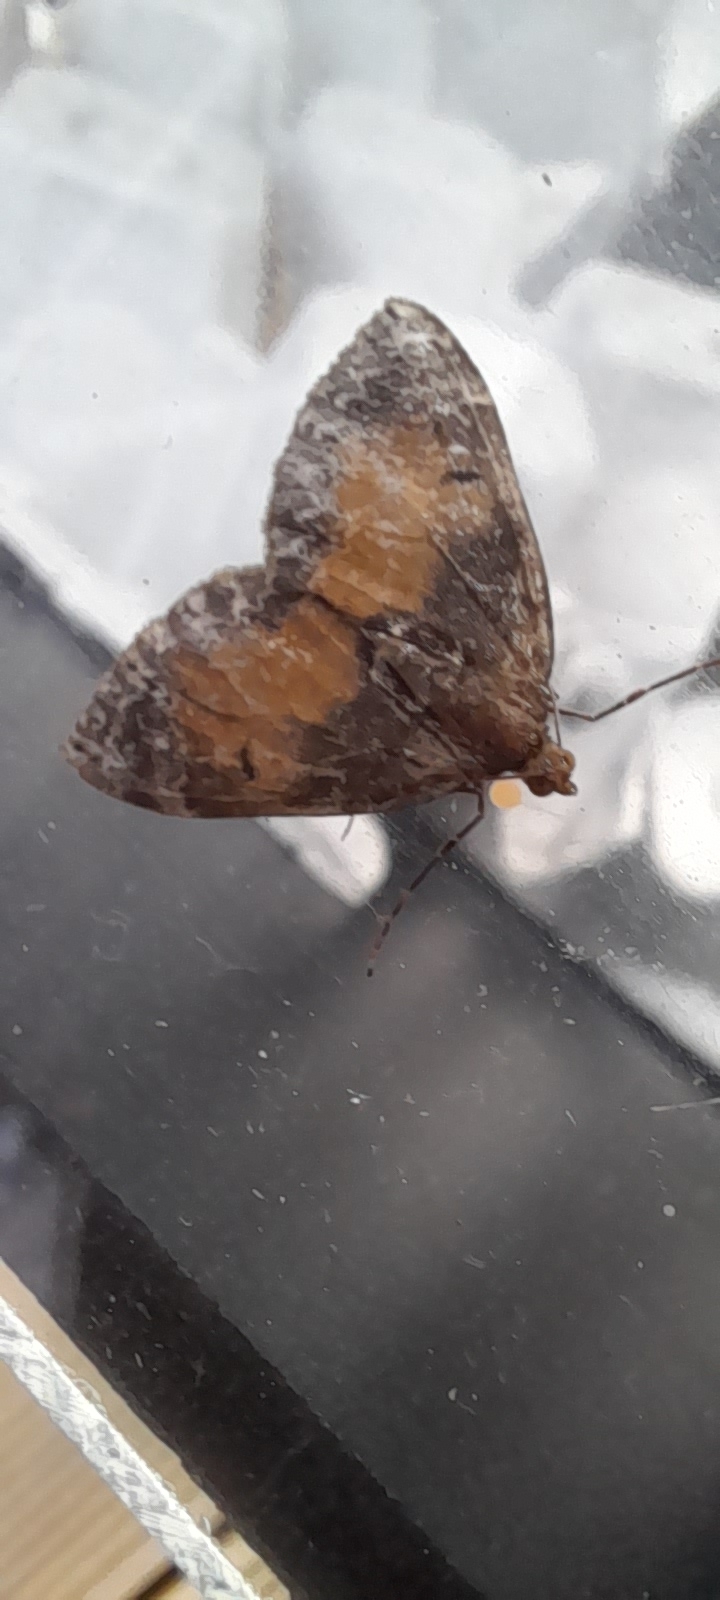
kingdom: Animalia
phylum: Arthropoda
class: Insecta
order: Lepidoptera
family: Geometridae
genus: Dysstroma
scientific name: Dysstroma truncata
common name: Common marbled carpet
